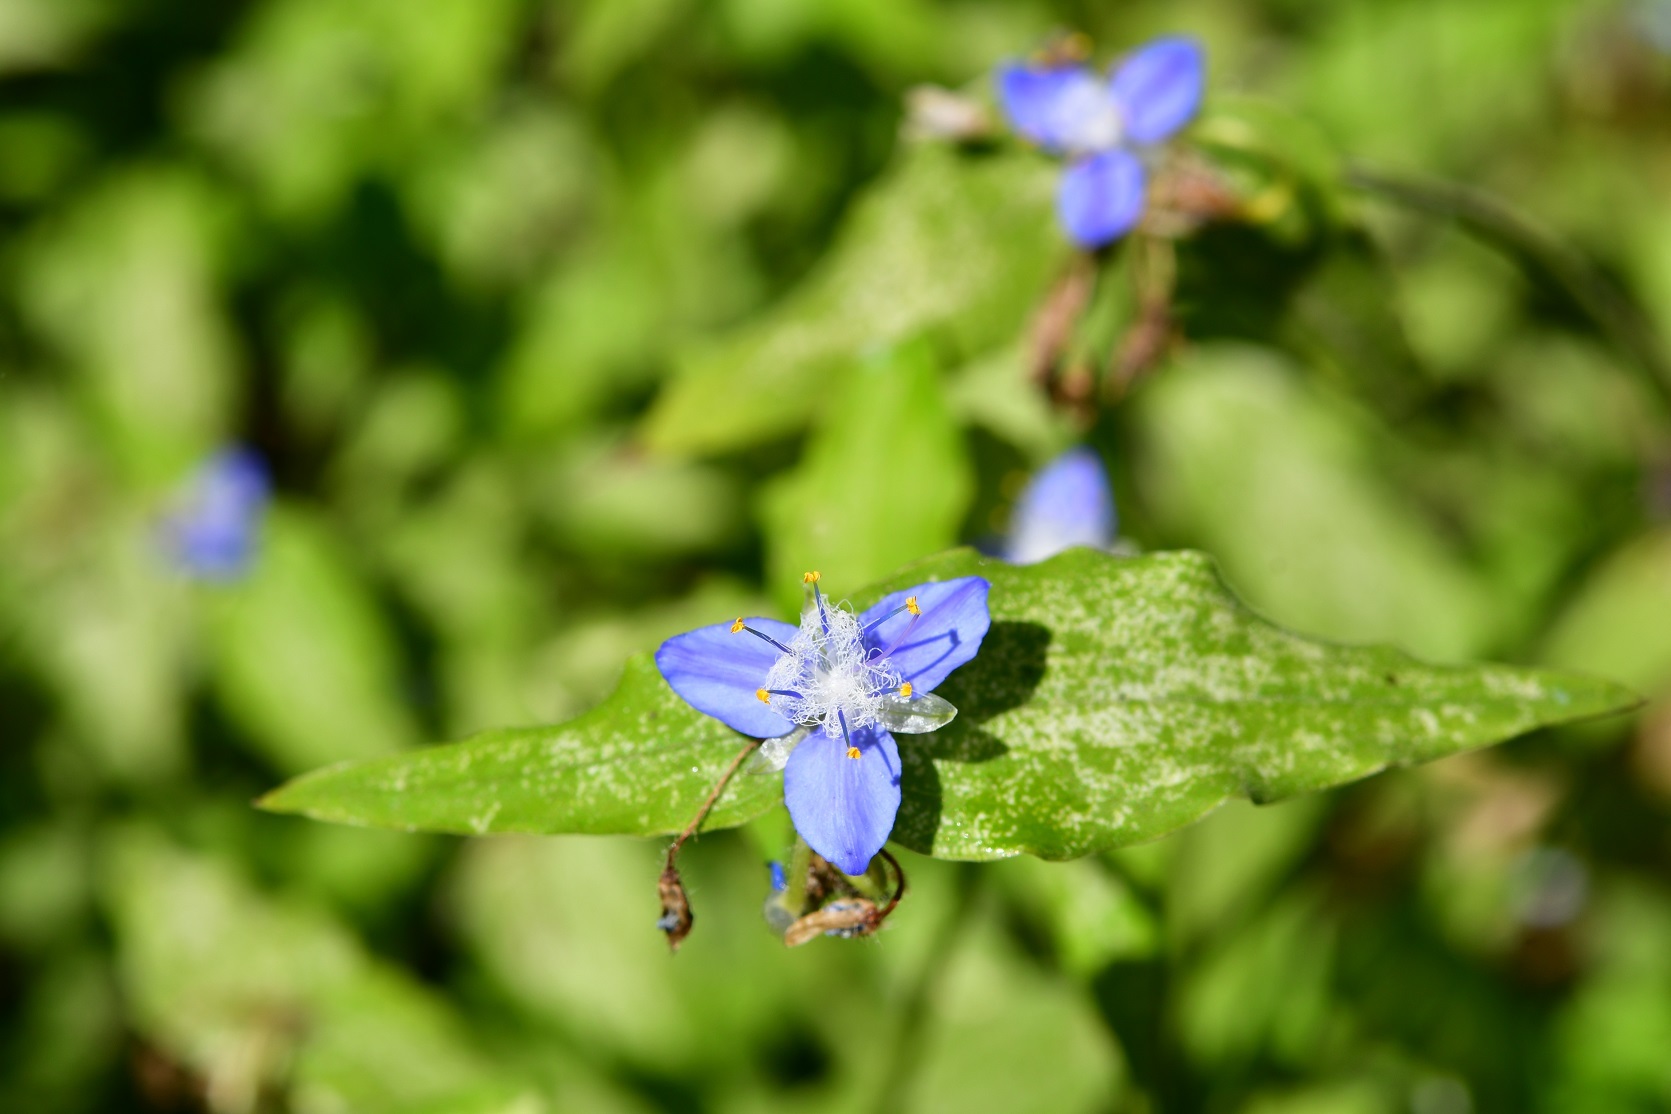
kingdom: Plantae
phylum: Tracheophyta
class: Liliopsida
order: Commelinales
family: Commelinaceae
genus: Elasis
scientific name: Elasis guatemalensis
